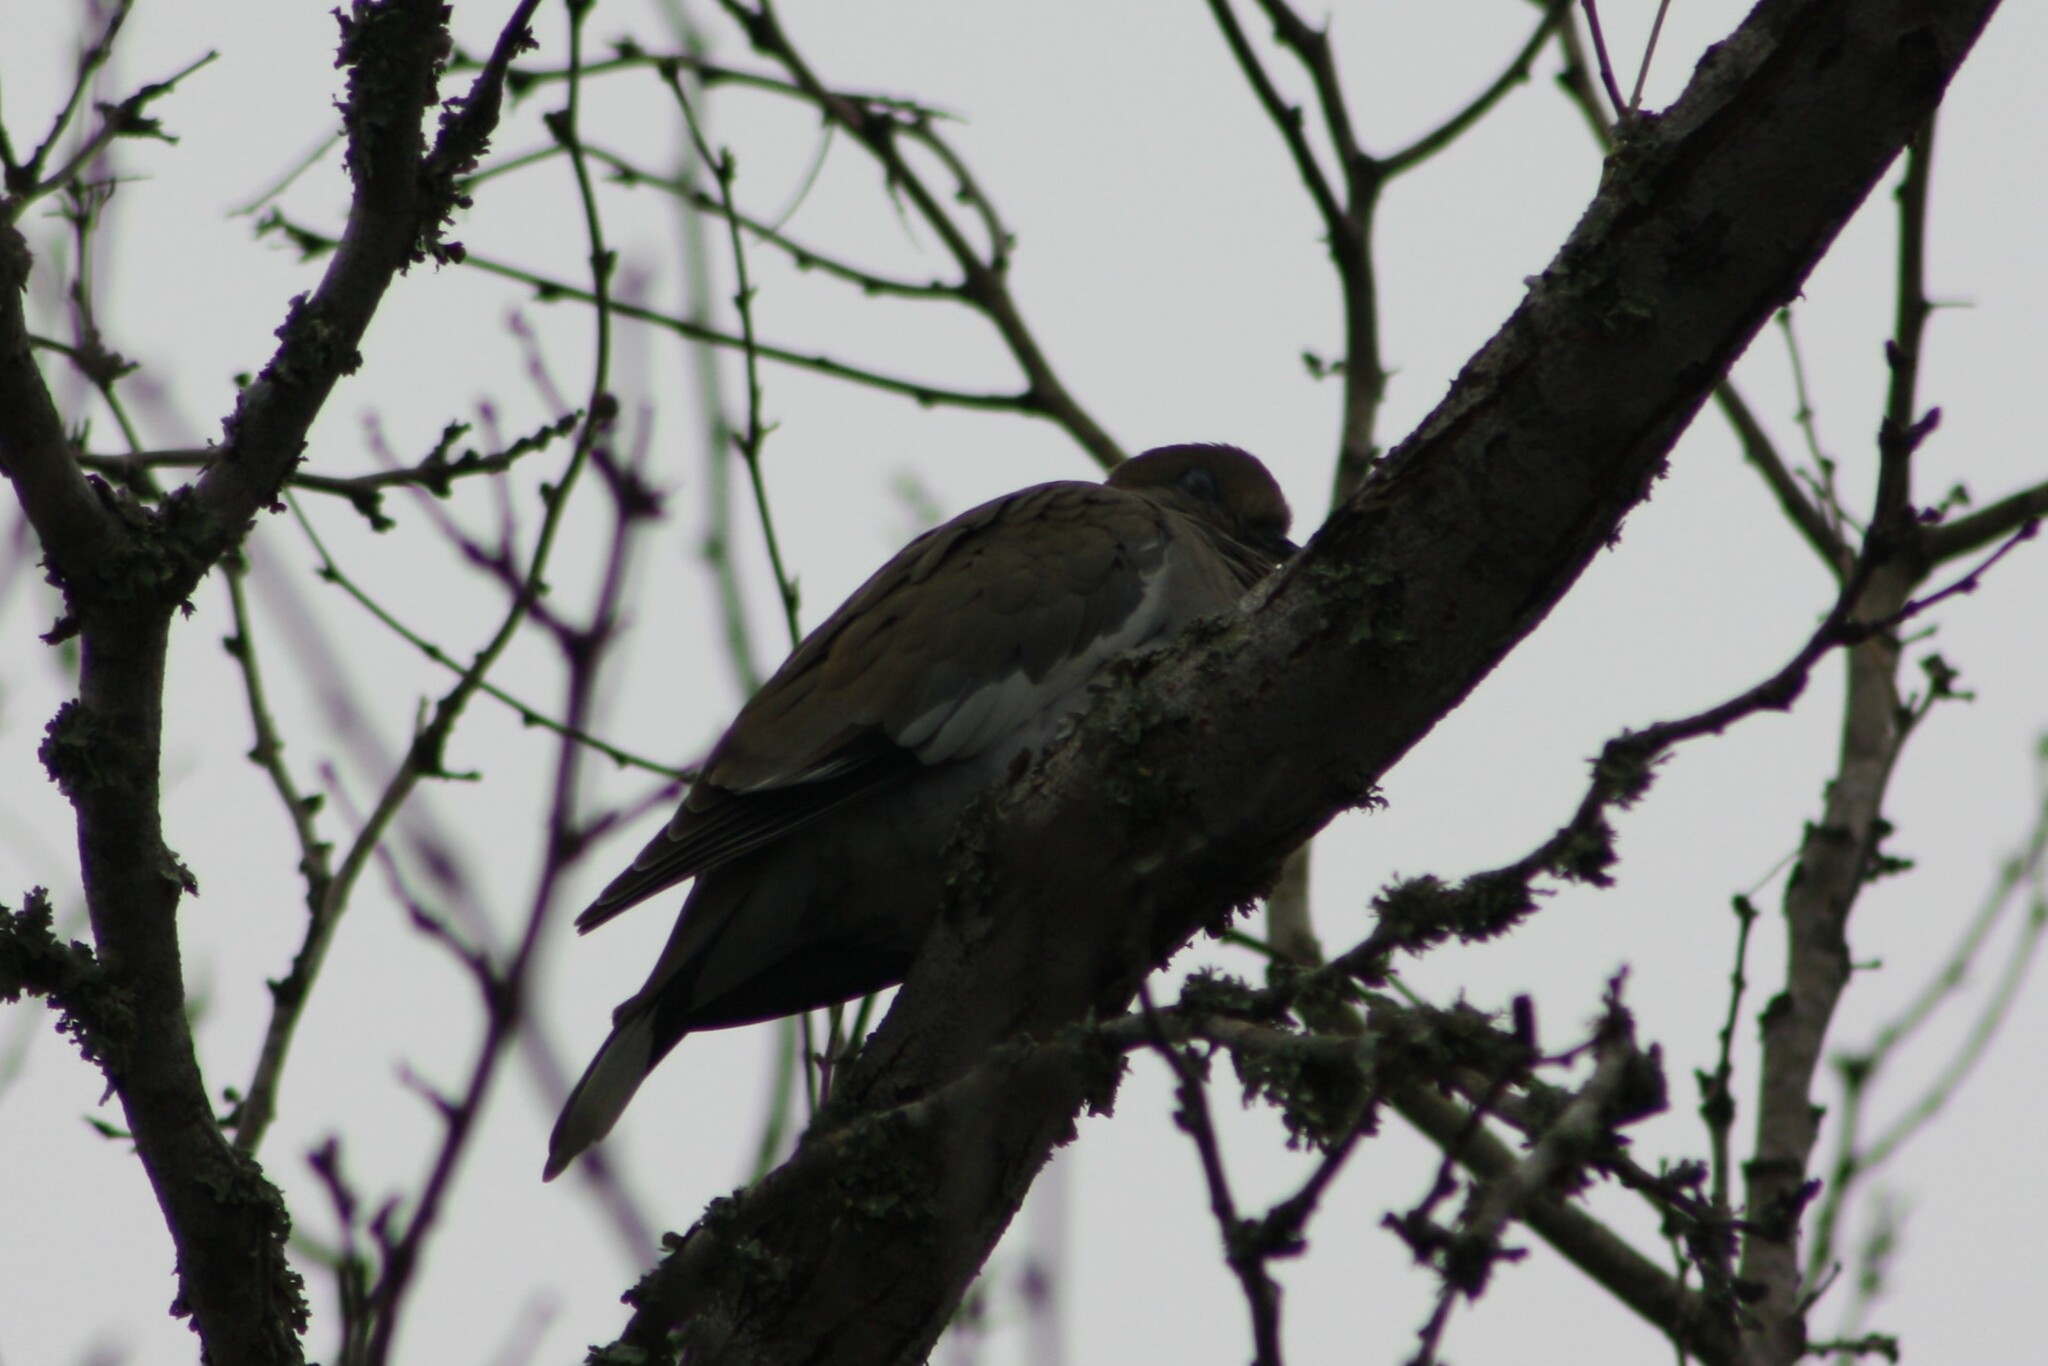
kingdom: Animalia
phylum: Chordata
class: Aves
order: Columbiformes
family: Columbidae
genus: Zenaida
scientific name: Zenaida asiatica
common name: White-winged dove
